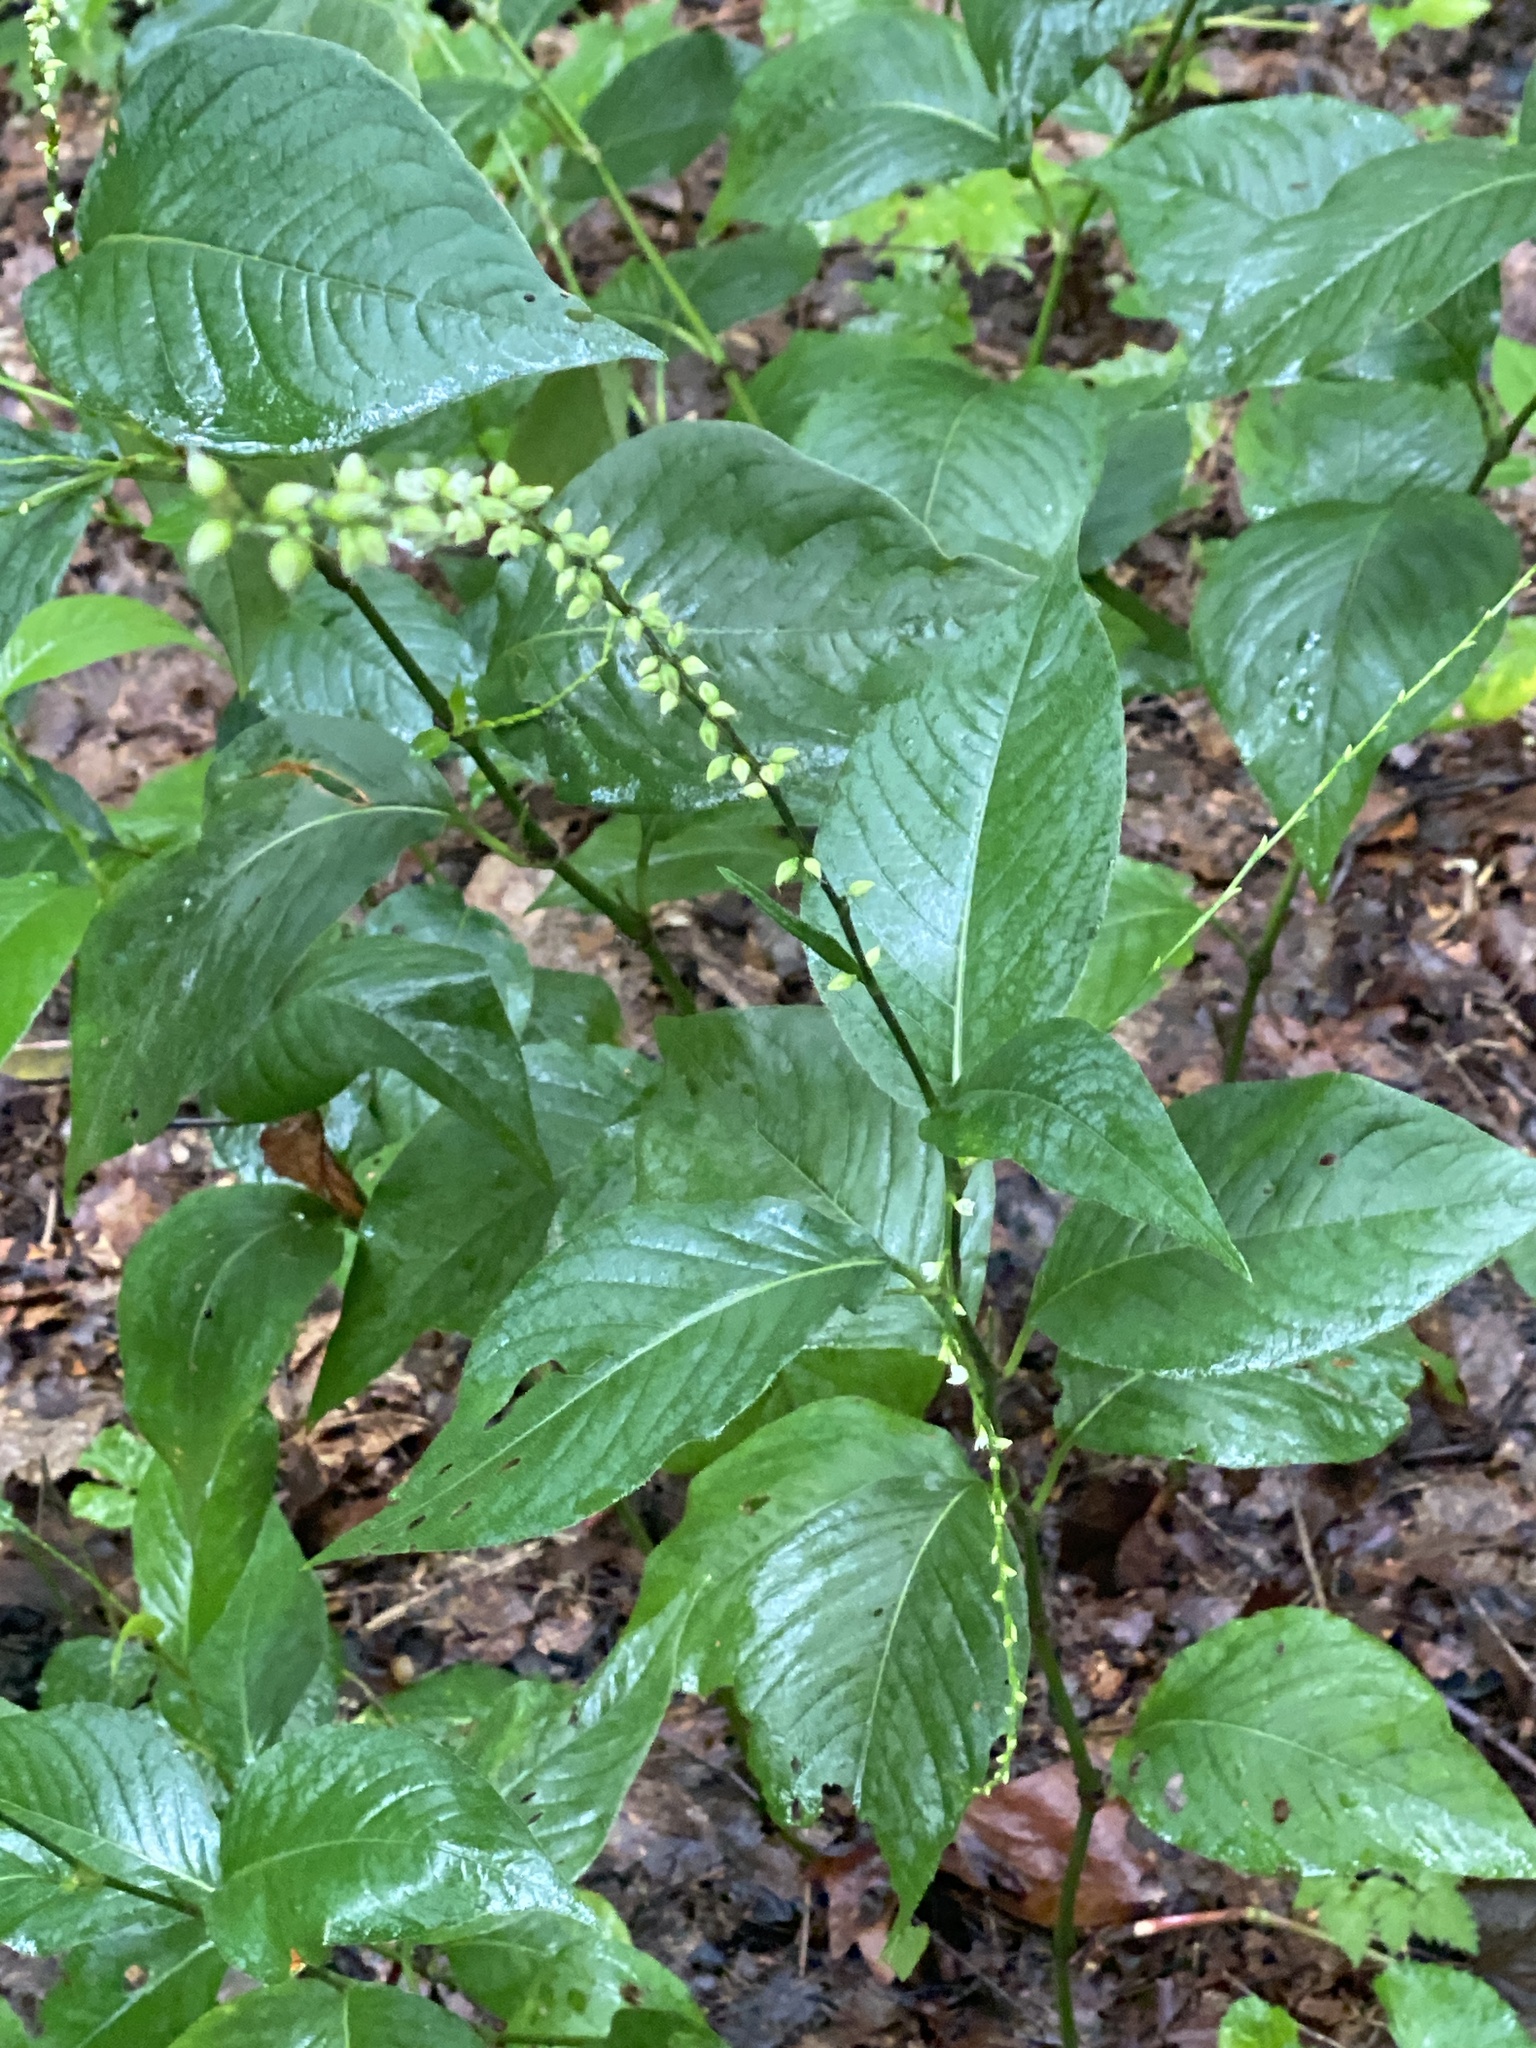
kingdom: Plantae
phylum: Tracheophyta
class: Magnoliopsida
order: Caryophyllales
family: Polygonaceae
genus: Persicaria
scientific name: Persicaria virginiana
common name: Jumpseed
